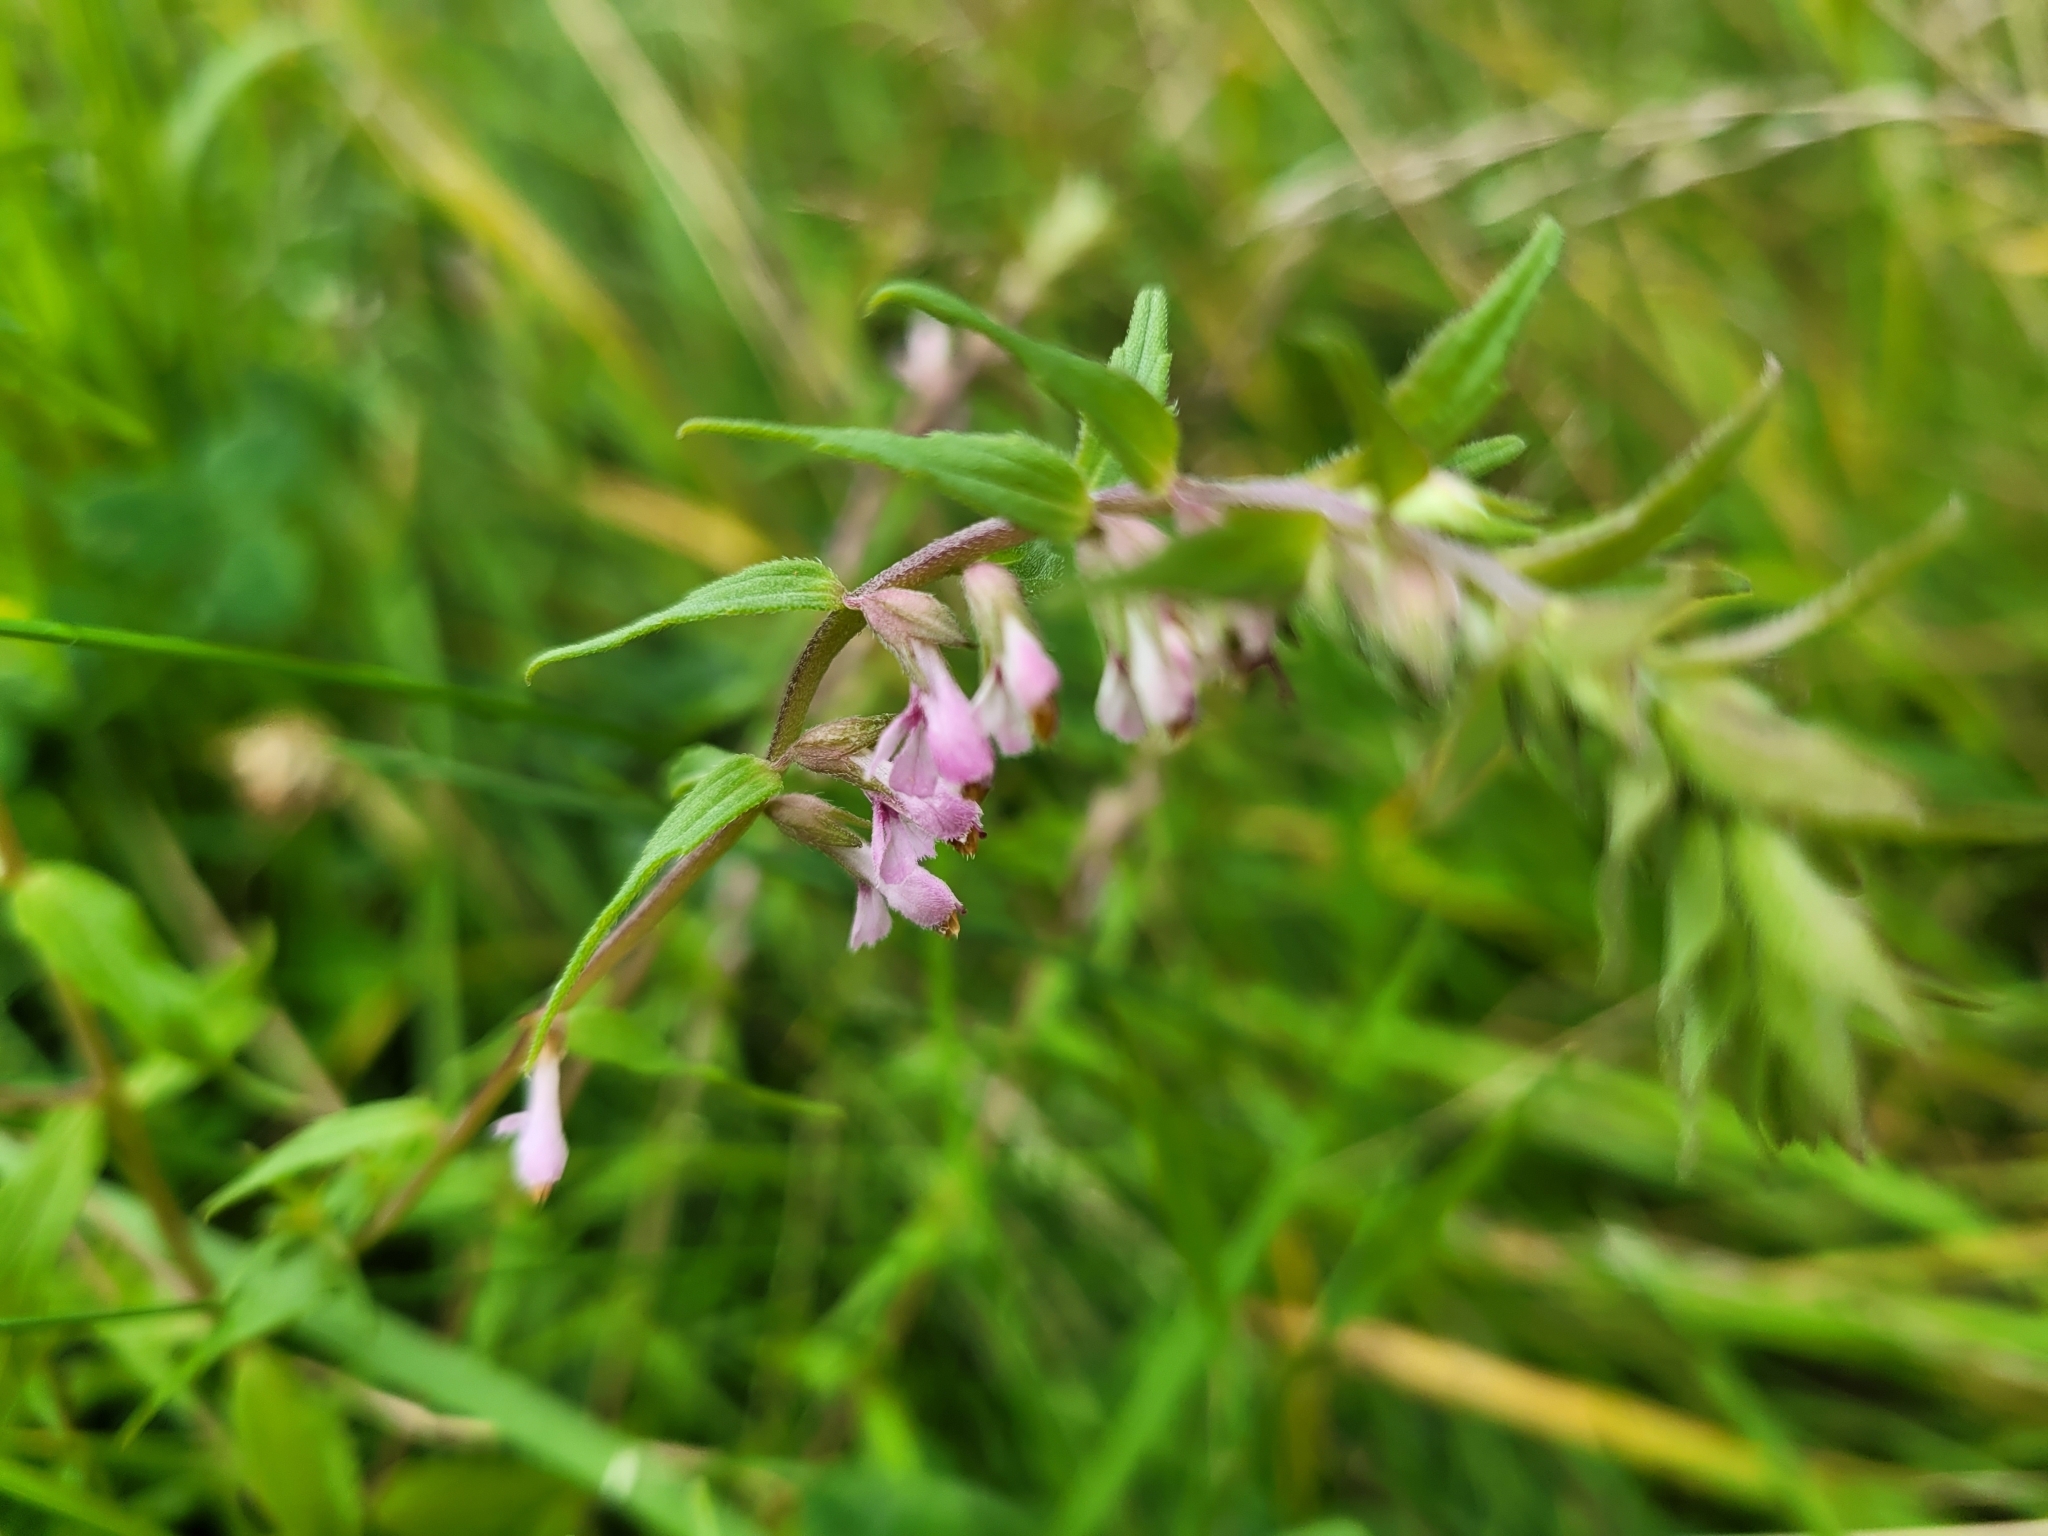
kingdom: Plantae
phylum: Tracheophyta
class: Magnoliopsida
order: Lamiales
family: Orobanchaceae
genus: Odontites
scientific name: Odontites vulgaris
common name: Broomrape
